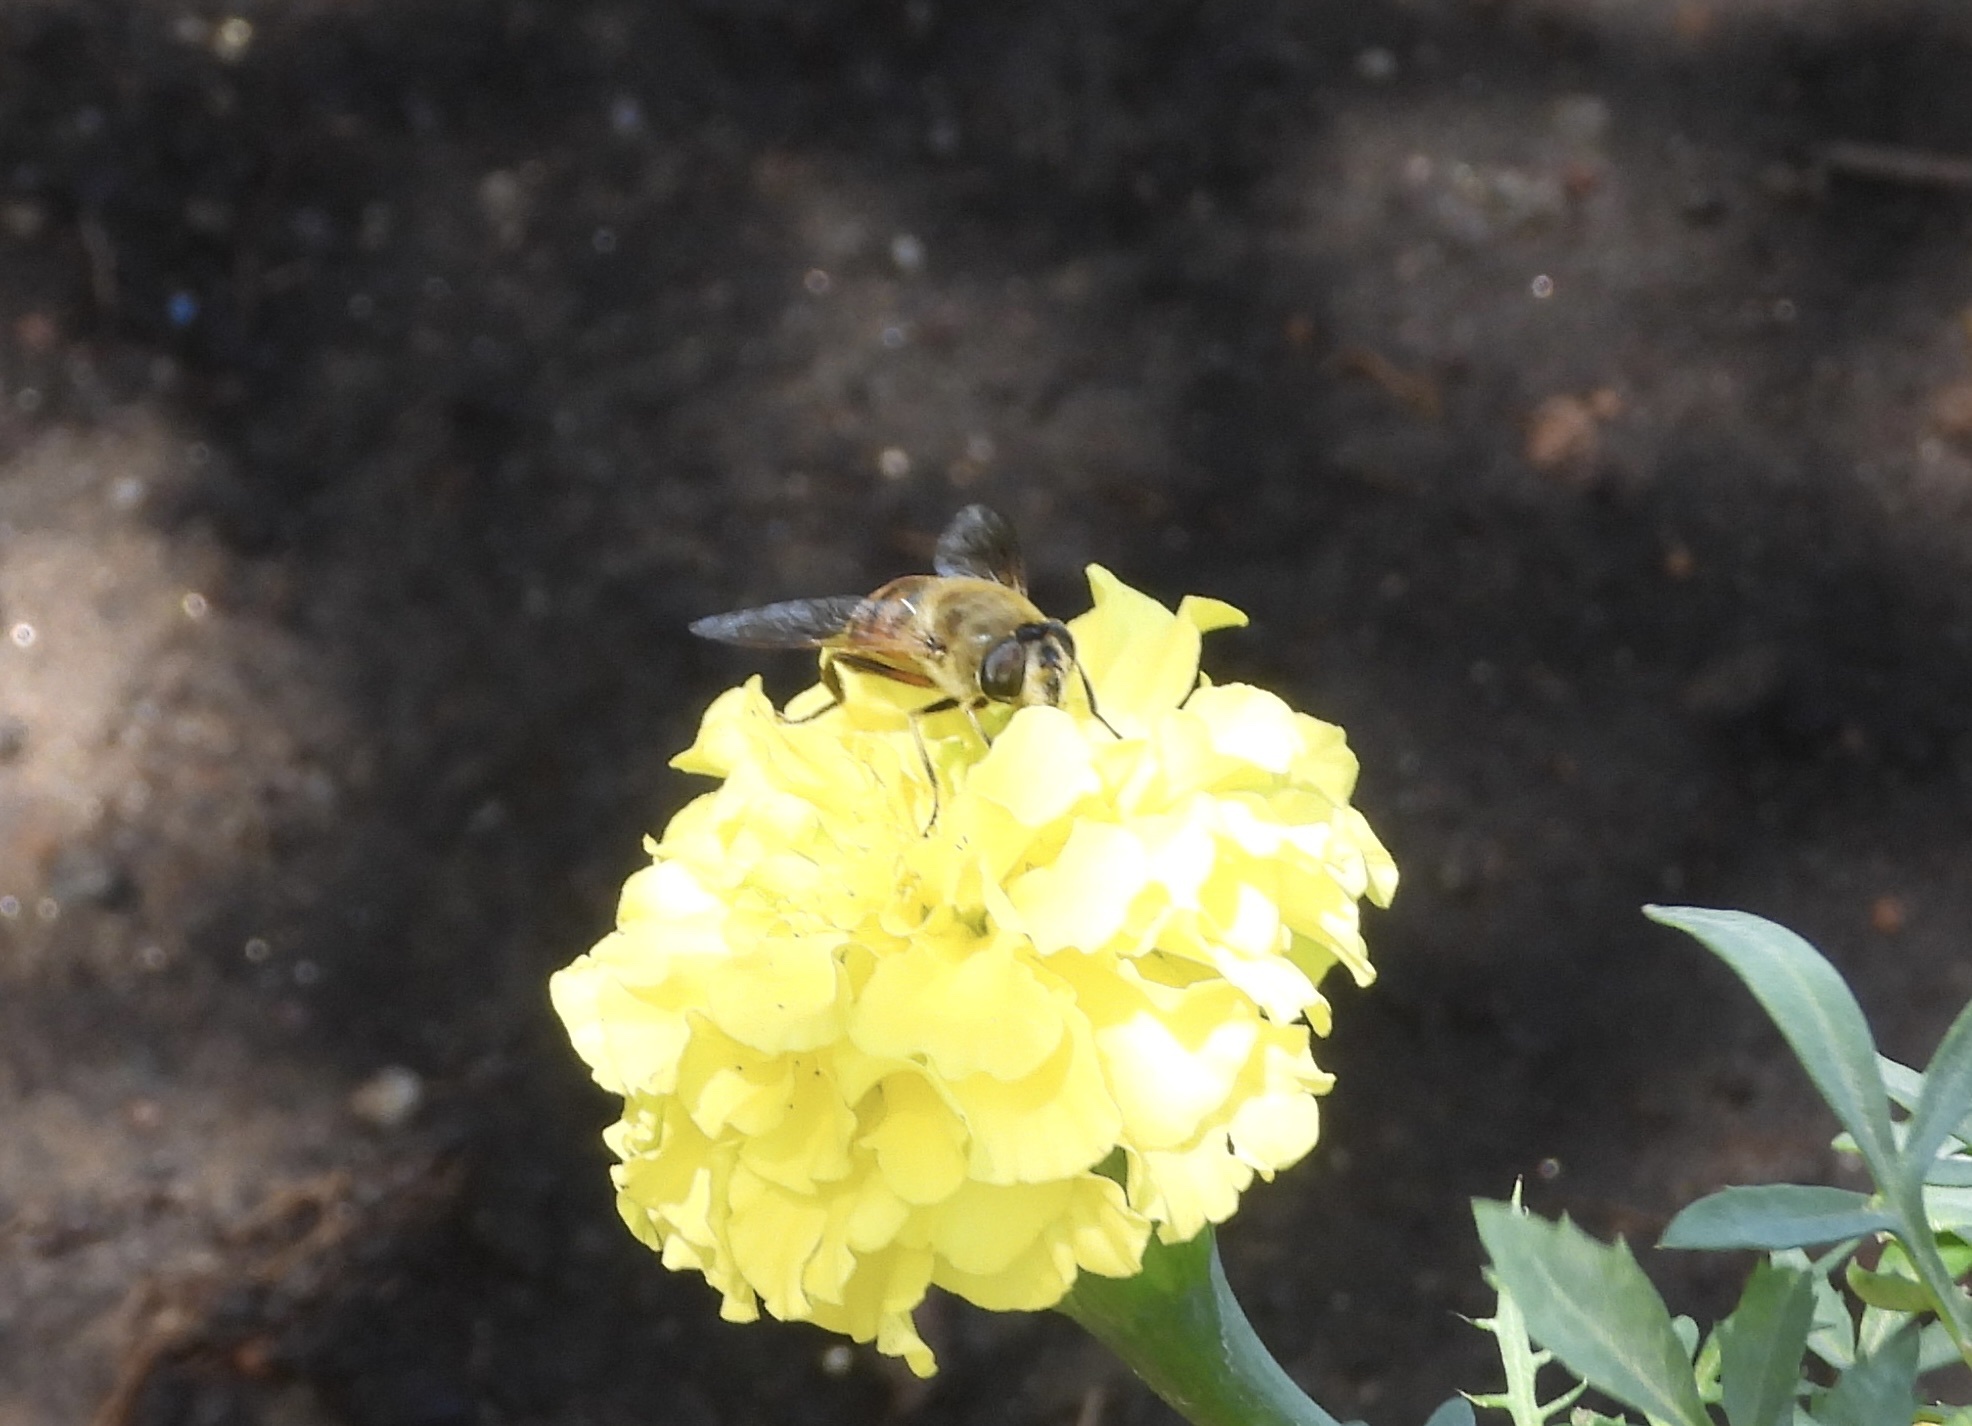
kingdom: Animalia
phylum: Arthropoda
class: Insecta
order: Diptera
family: Syrphidae
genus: Eristalis
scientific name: Eristalis tenax
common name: Drone fly
